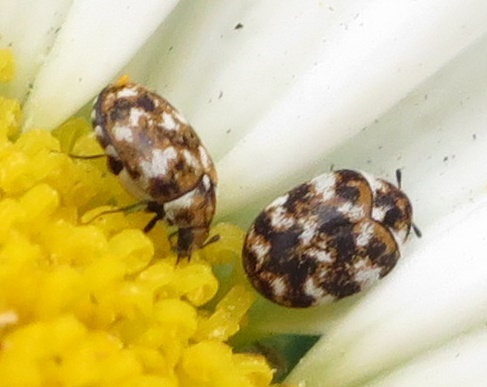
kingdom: Animalia
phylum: Arthropoda
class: Insecta
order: Coleoptera
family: Dermestidae
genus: Anthrenus
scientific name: Anthrenus verbasci
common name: Varied carpet beetle
